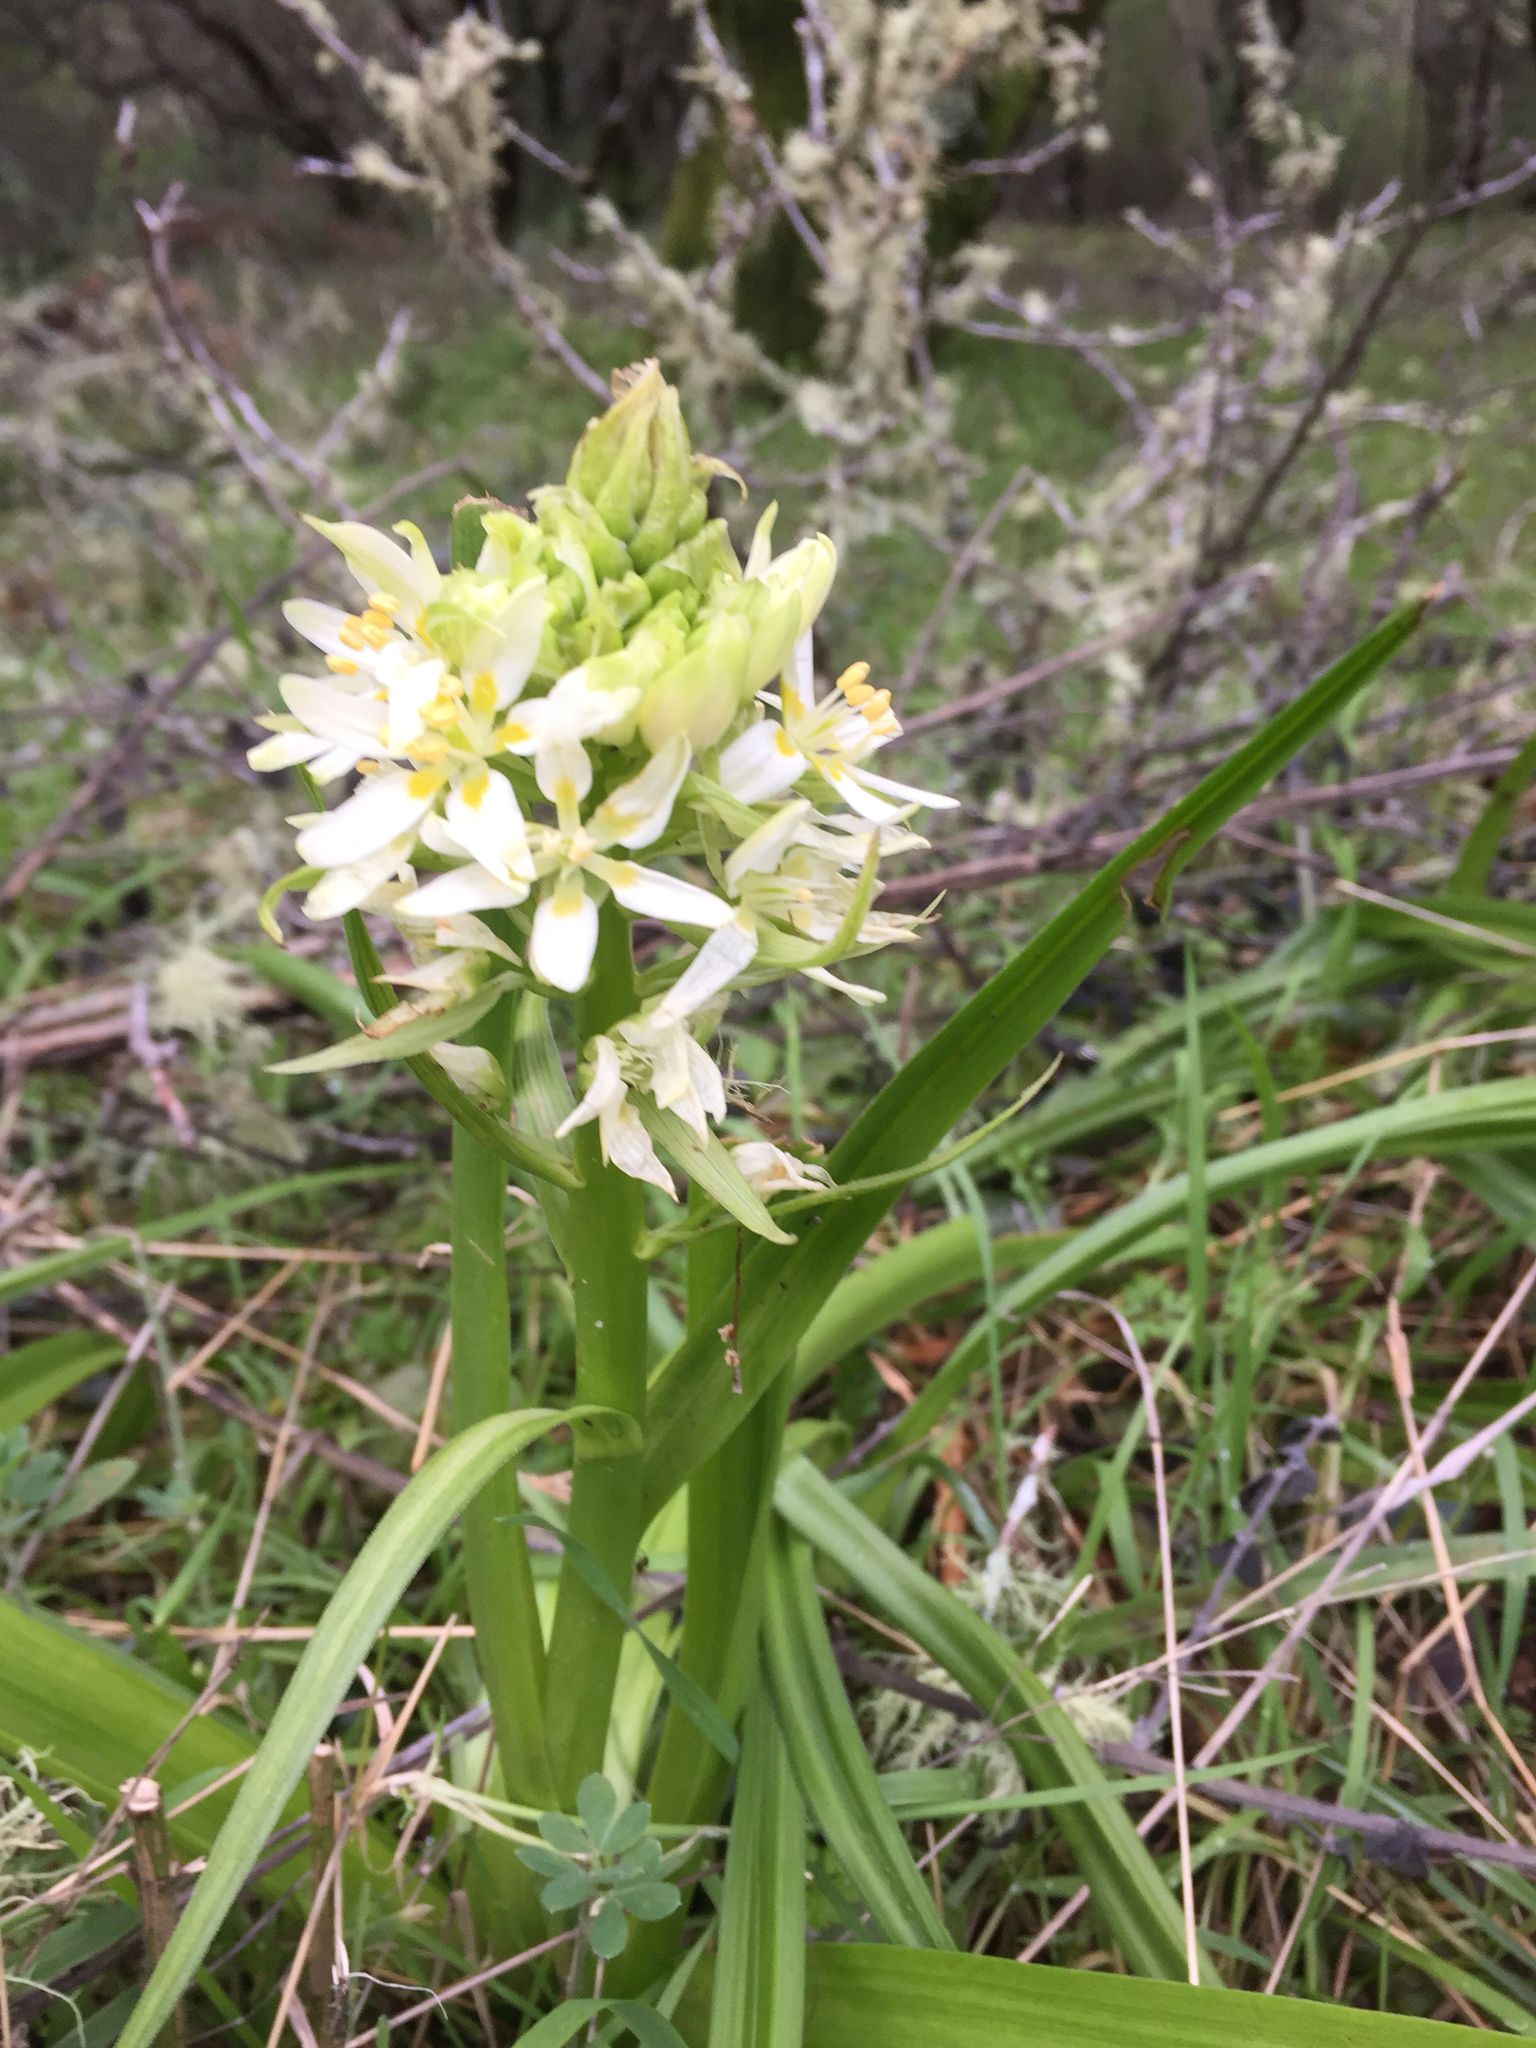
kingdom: Plantae
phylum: Tracheophyta
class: Liliopsida
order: Liliales
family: Melanthiaceae
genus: Toxicoscordion
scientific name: Toxicoscordion fremontii
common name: Fremont's death camas
